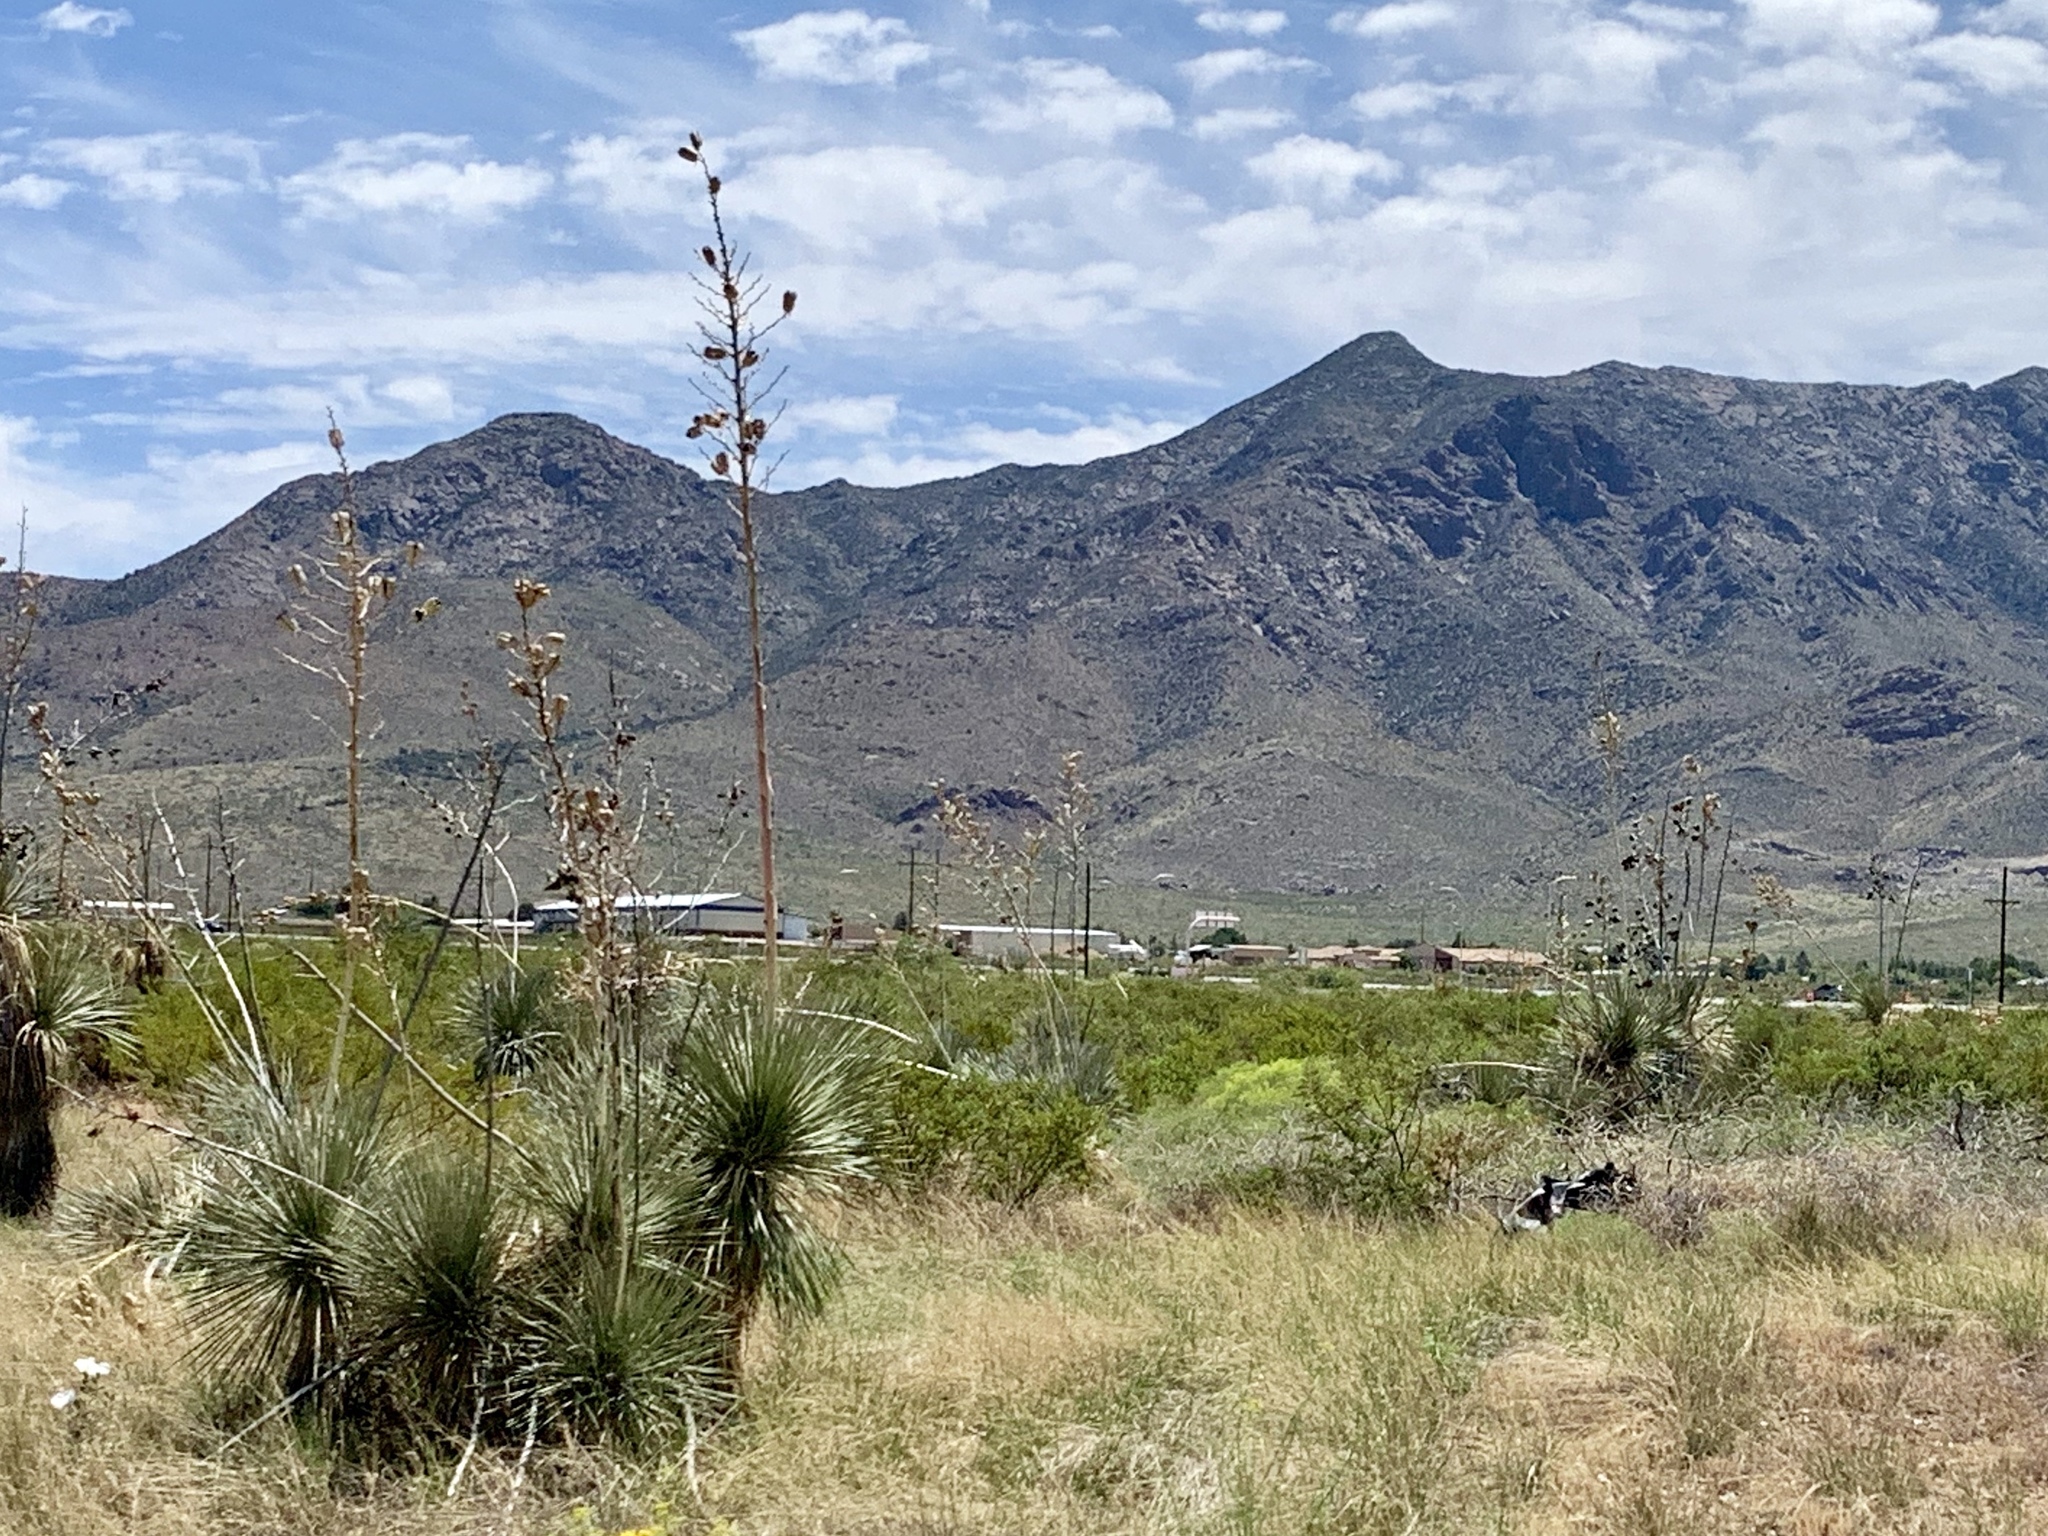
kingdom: Plantae
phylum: Tracheophyta
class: Liliopsida
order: Asparagales
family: Asparagaceae
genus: Yucca
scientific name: Yucca elata
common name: Palmella
